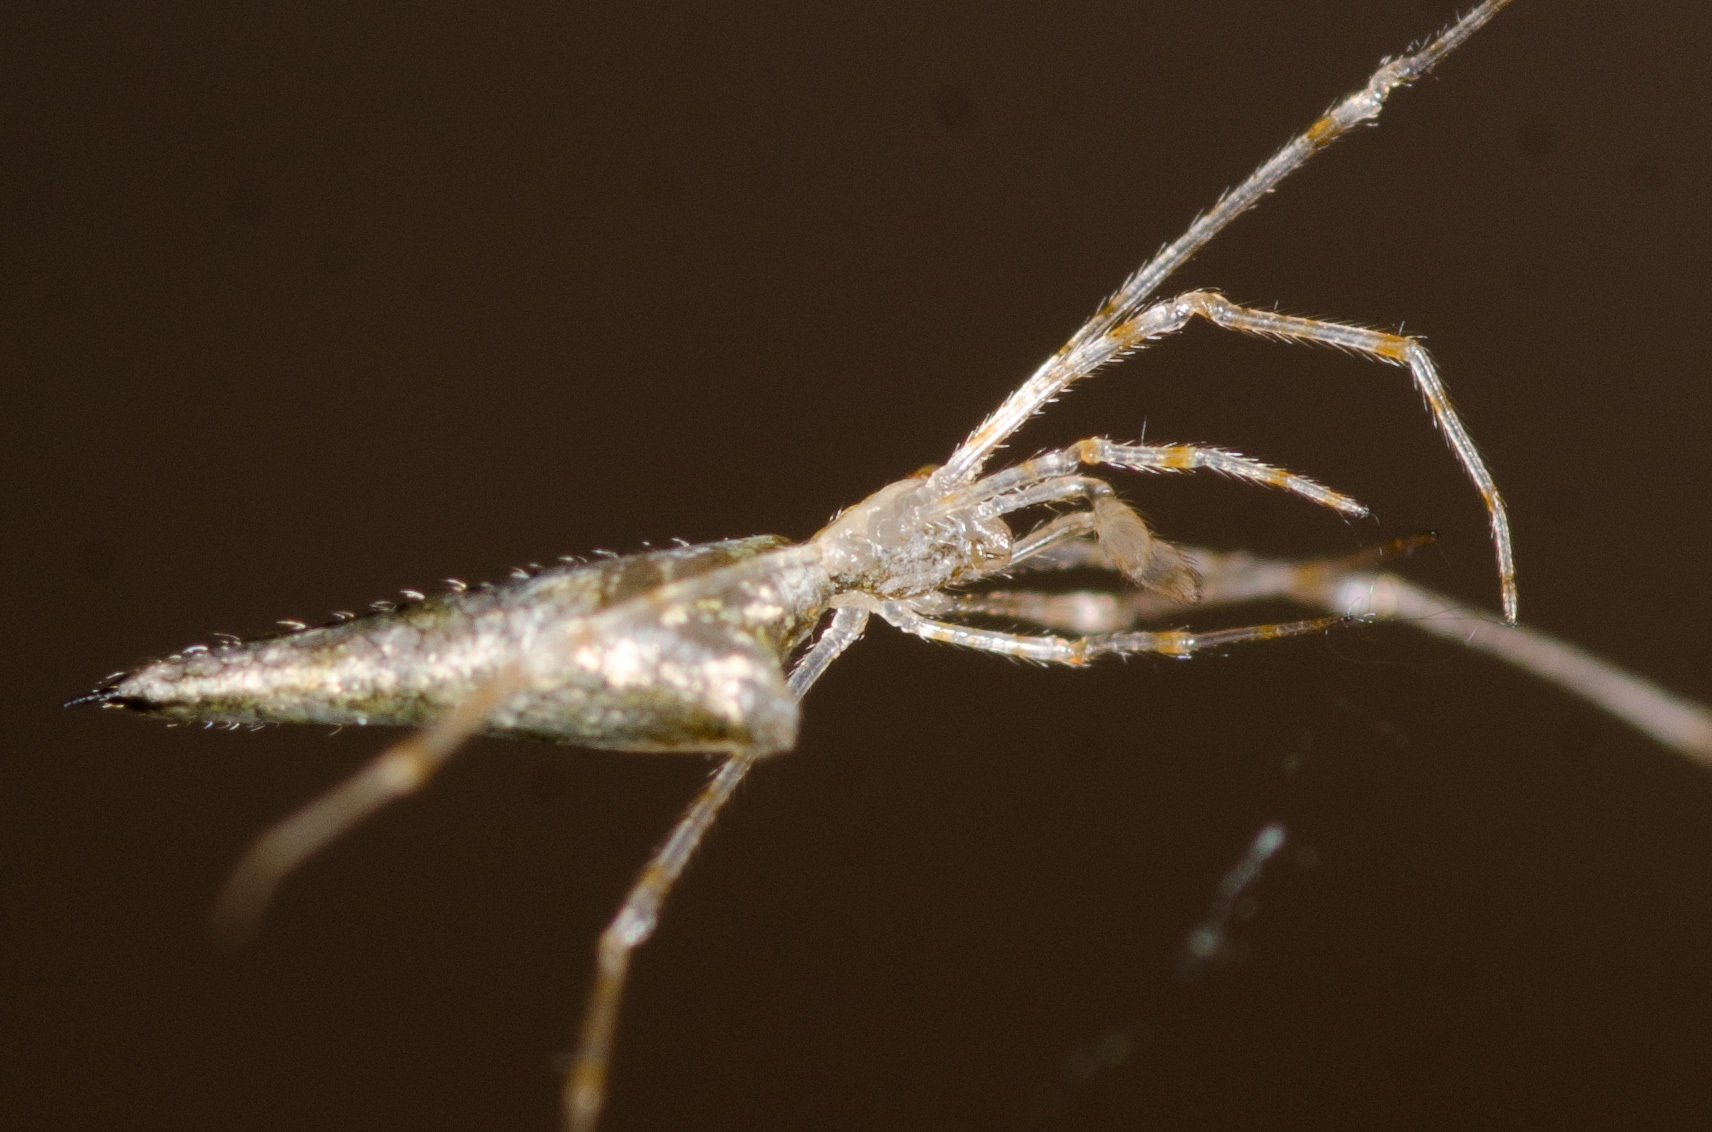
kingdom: Animalia
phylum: Arthropoda
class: Arachnida
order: Araneae
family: Theridiidae
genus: Rhomphaea
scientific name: Rhomphaea projiciens
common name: Cobweb spiders
